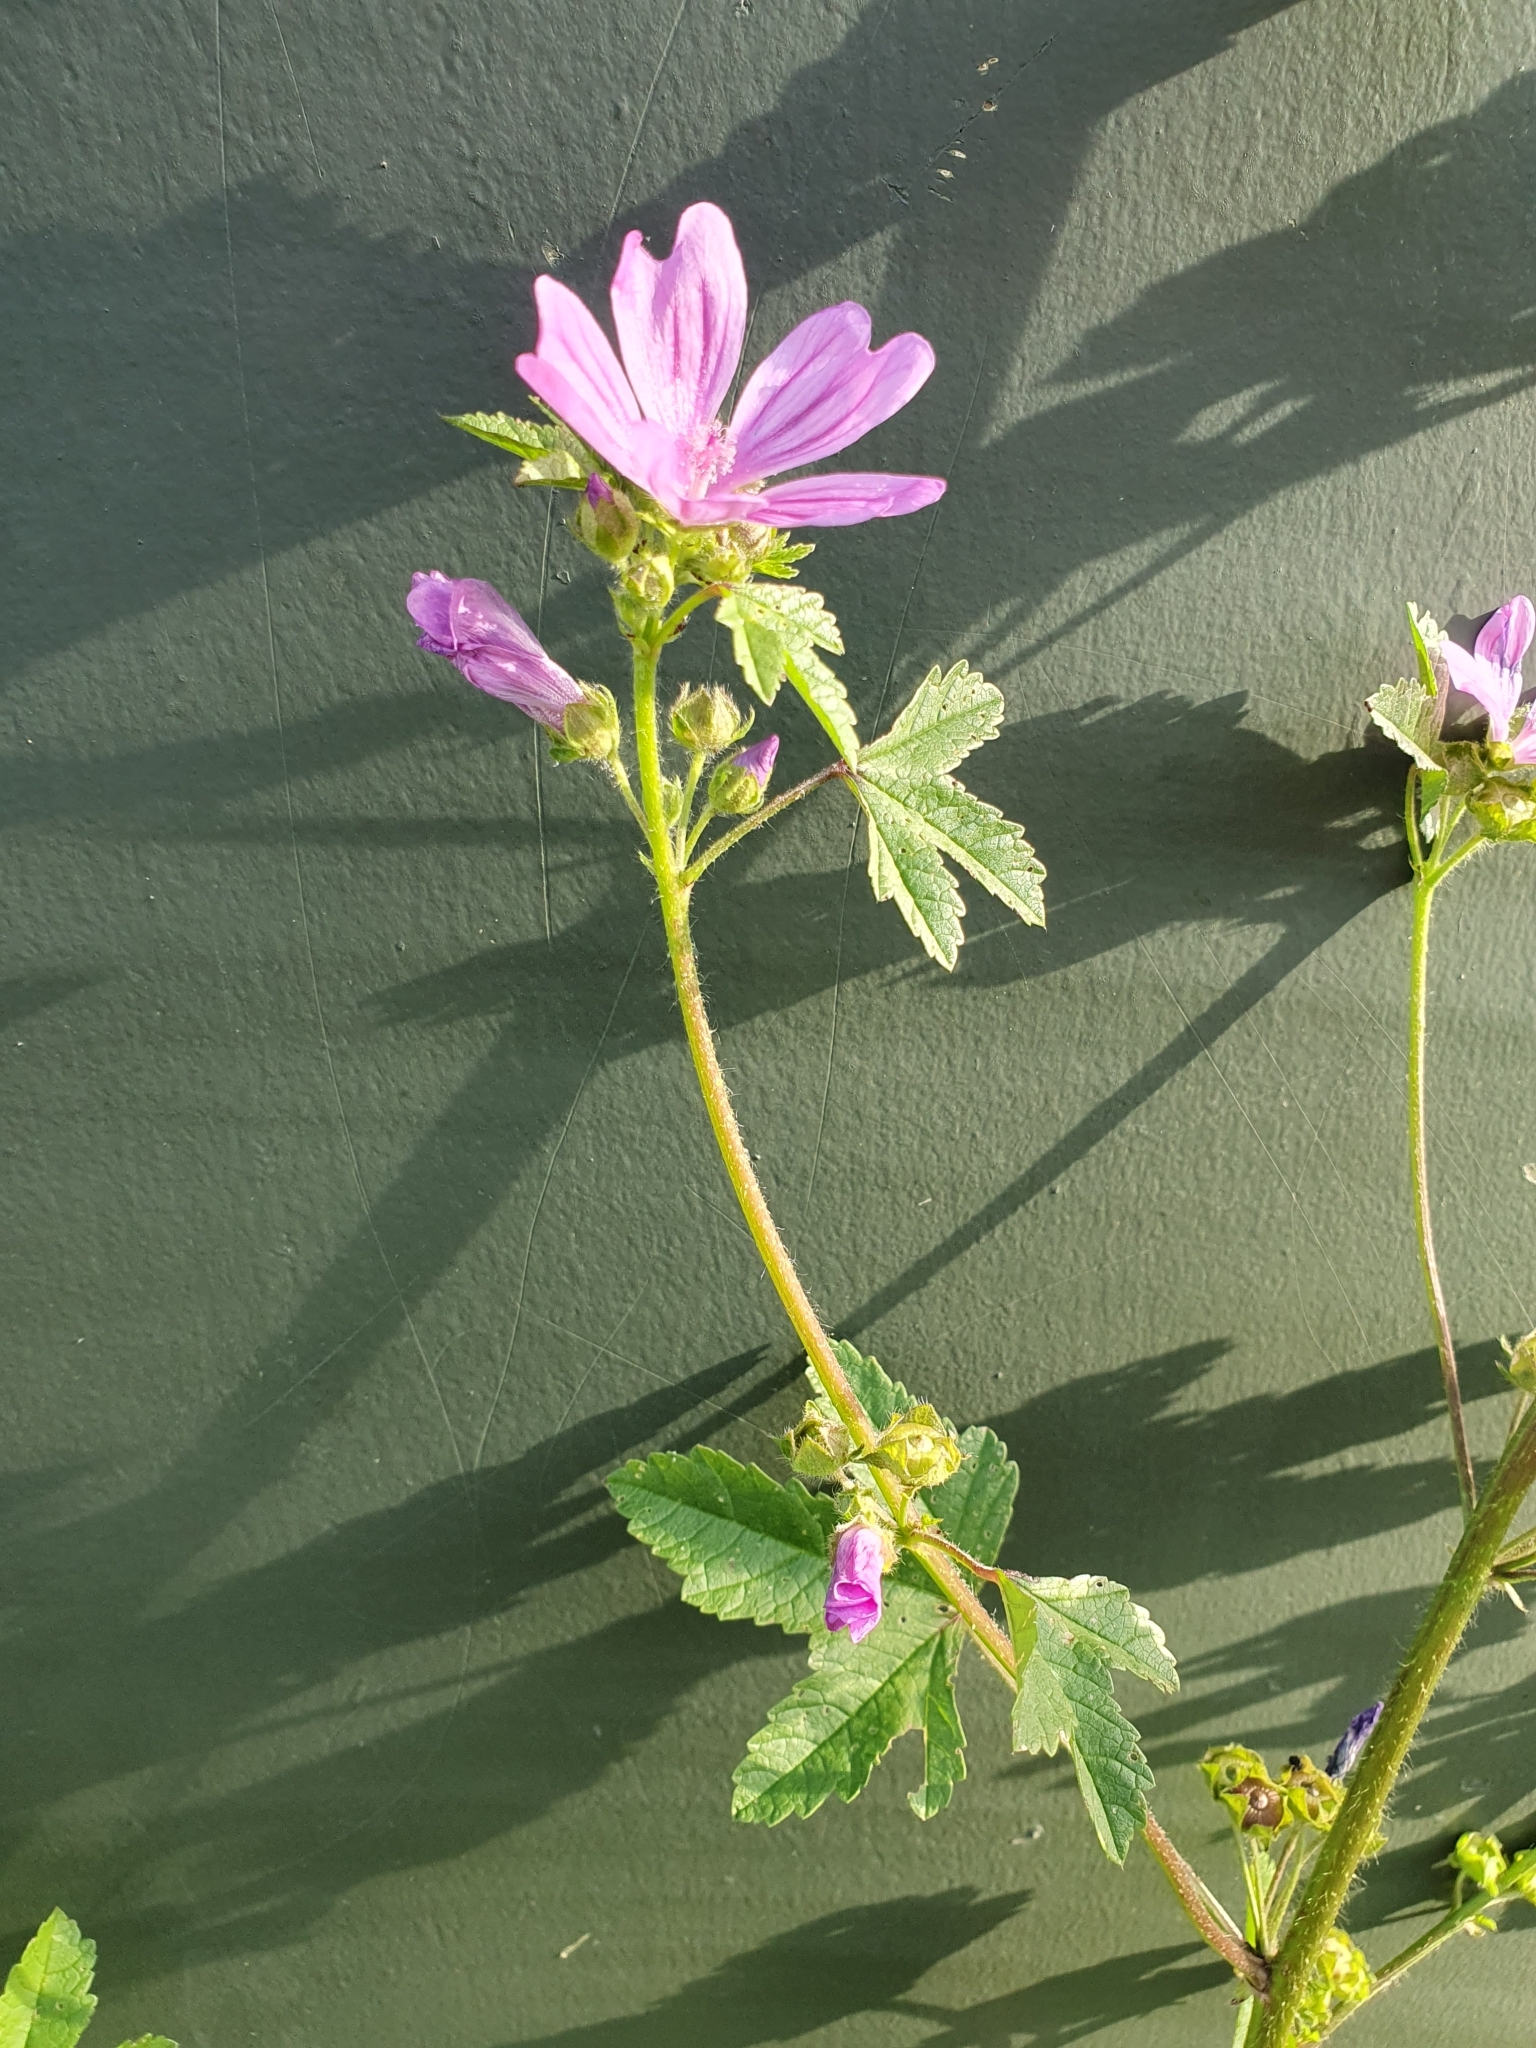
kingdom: Plantae
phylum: Tracheophyta
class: Magnoliopsida
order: Malvales
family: Malvaceae
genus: Malva
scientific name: Malva sylvestris
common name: Common mallow
